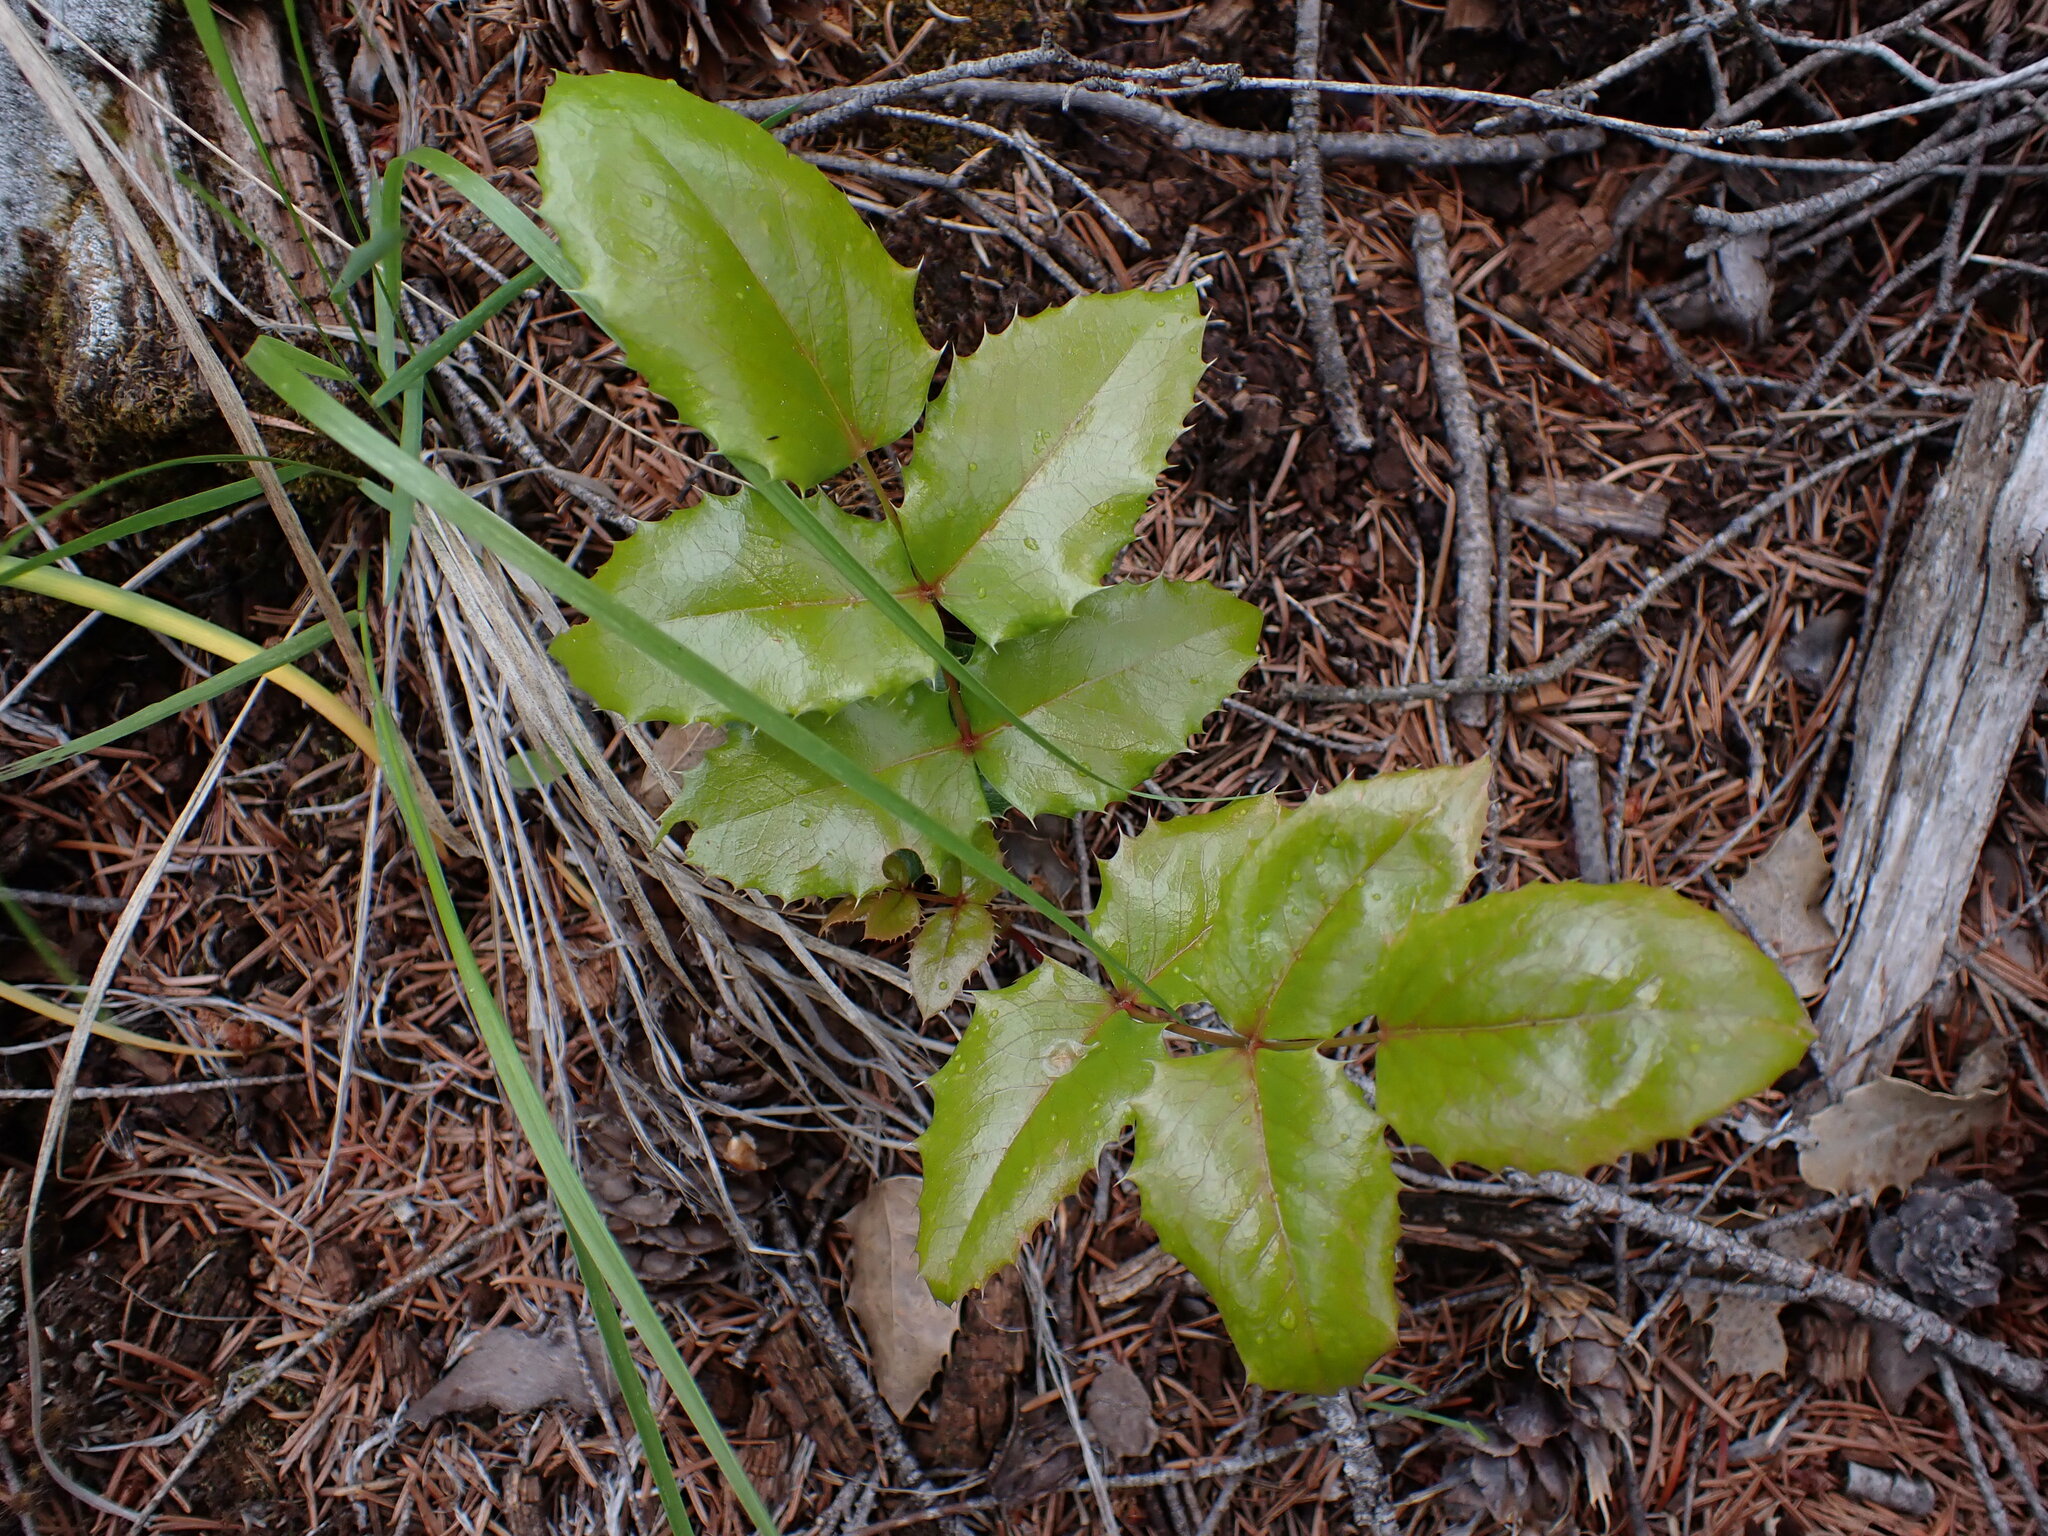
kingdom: Plantae
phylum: Tracheophyta
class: Magnoliopsida
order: Ranunculales
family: Berberidaceae
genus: Mahonia
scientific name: Mahonia aquifolium
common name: Oregon-grape
